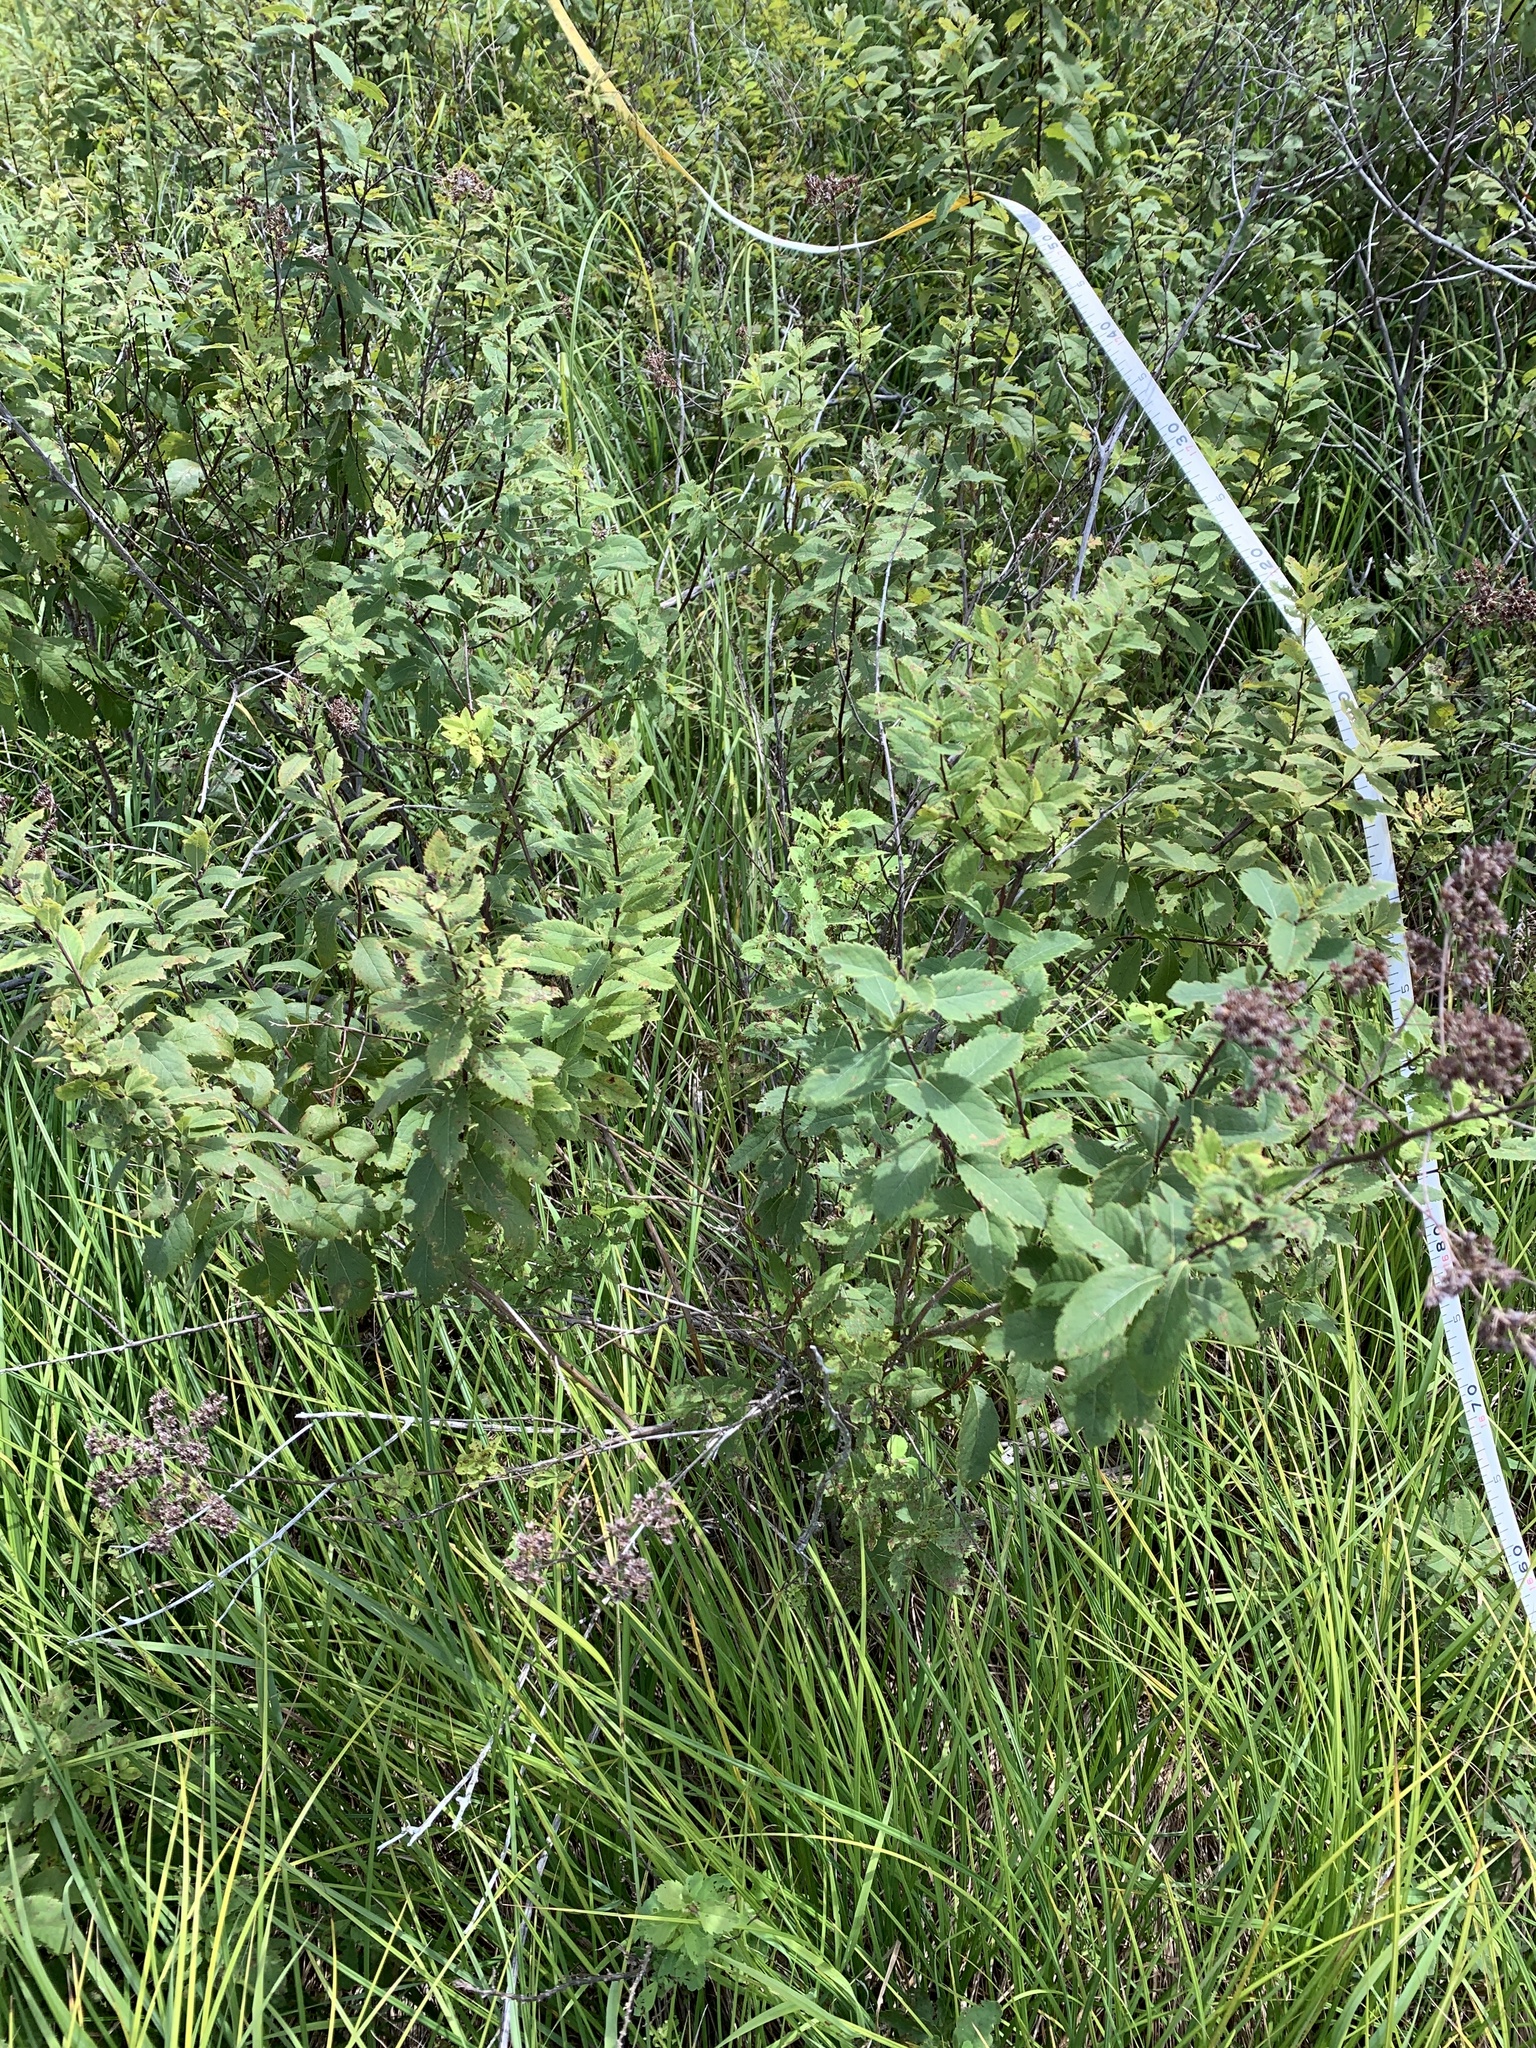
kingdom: Plantae
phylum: Tracheophyta
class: Magnoliopsida
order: Rosales
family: Rosaceae
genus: Spiraea
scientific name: Spiraea alba
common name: Pale bridewort
